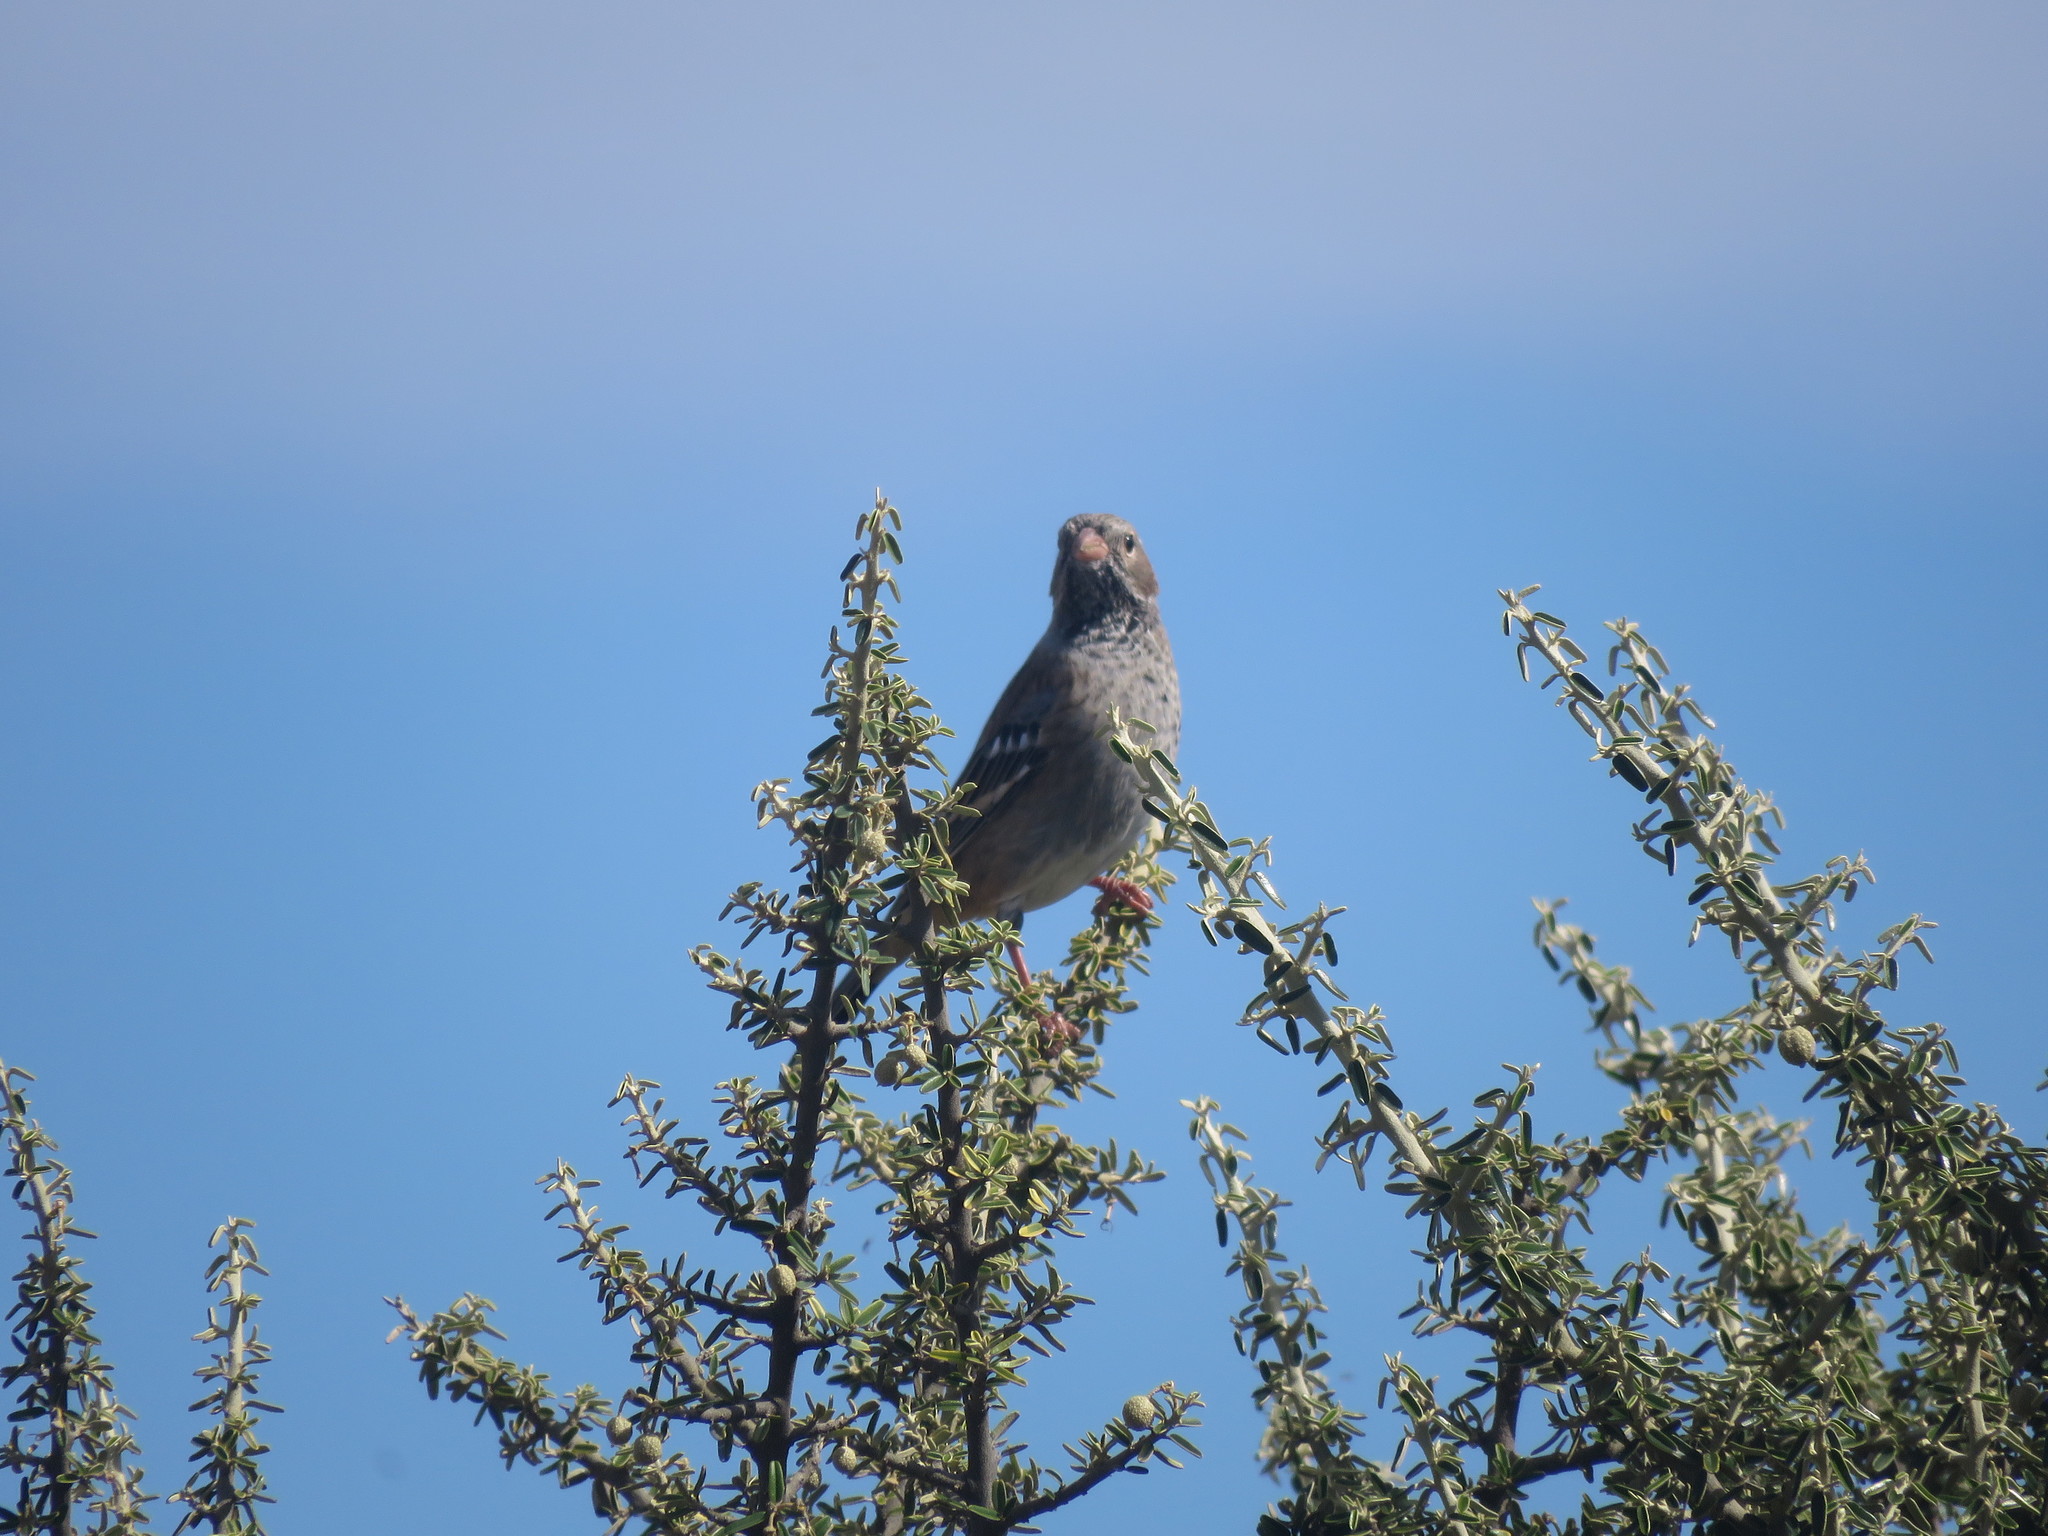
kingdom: Animalia
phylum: Chordata
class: Aves
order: Passeriformes
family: Thraupidae
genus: Rhopospina
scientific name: Rhopospina fruticeti
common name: Mourning sierra finch
